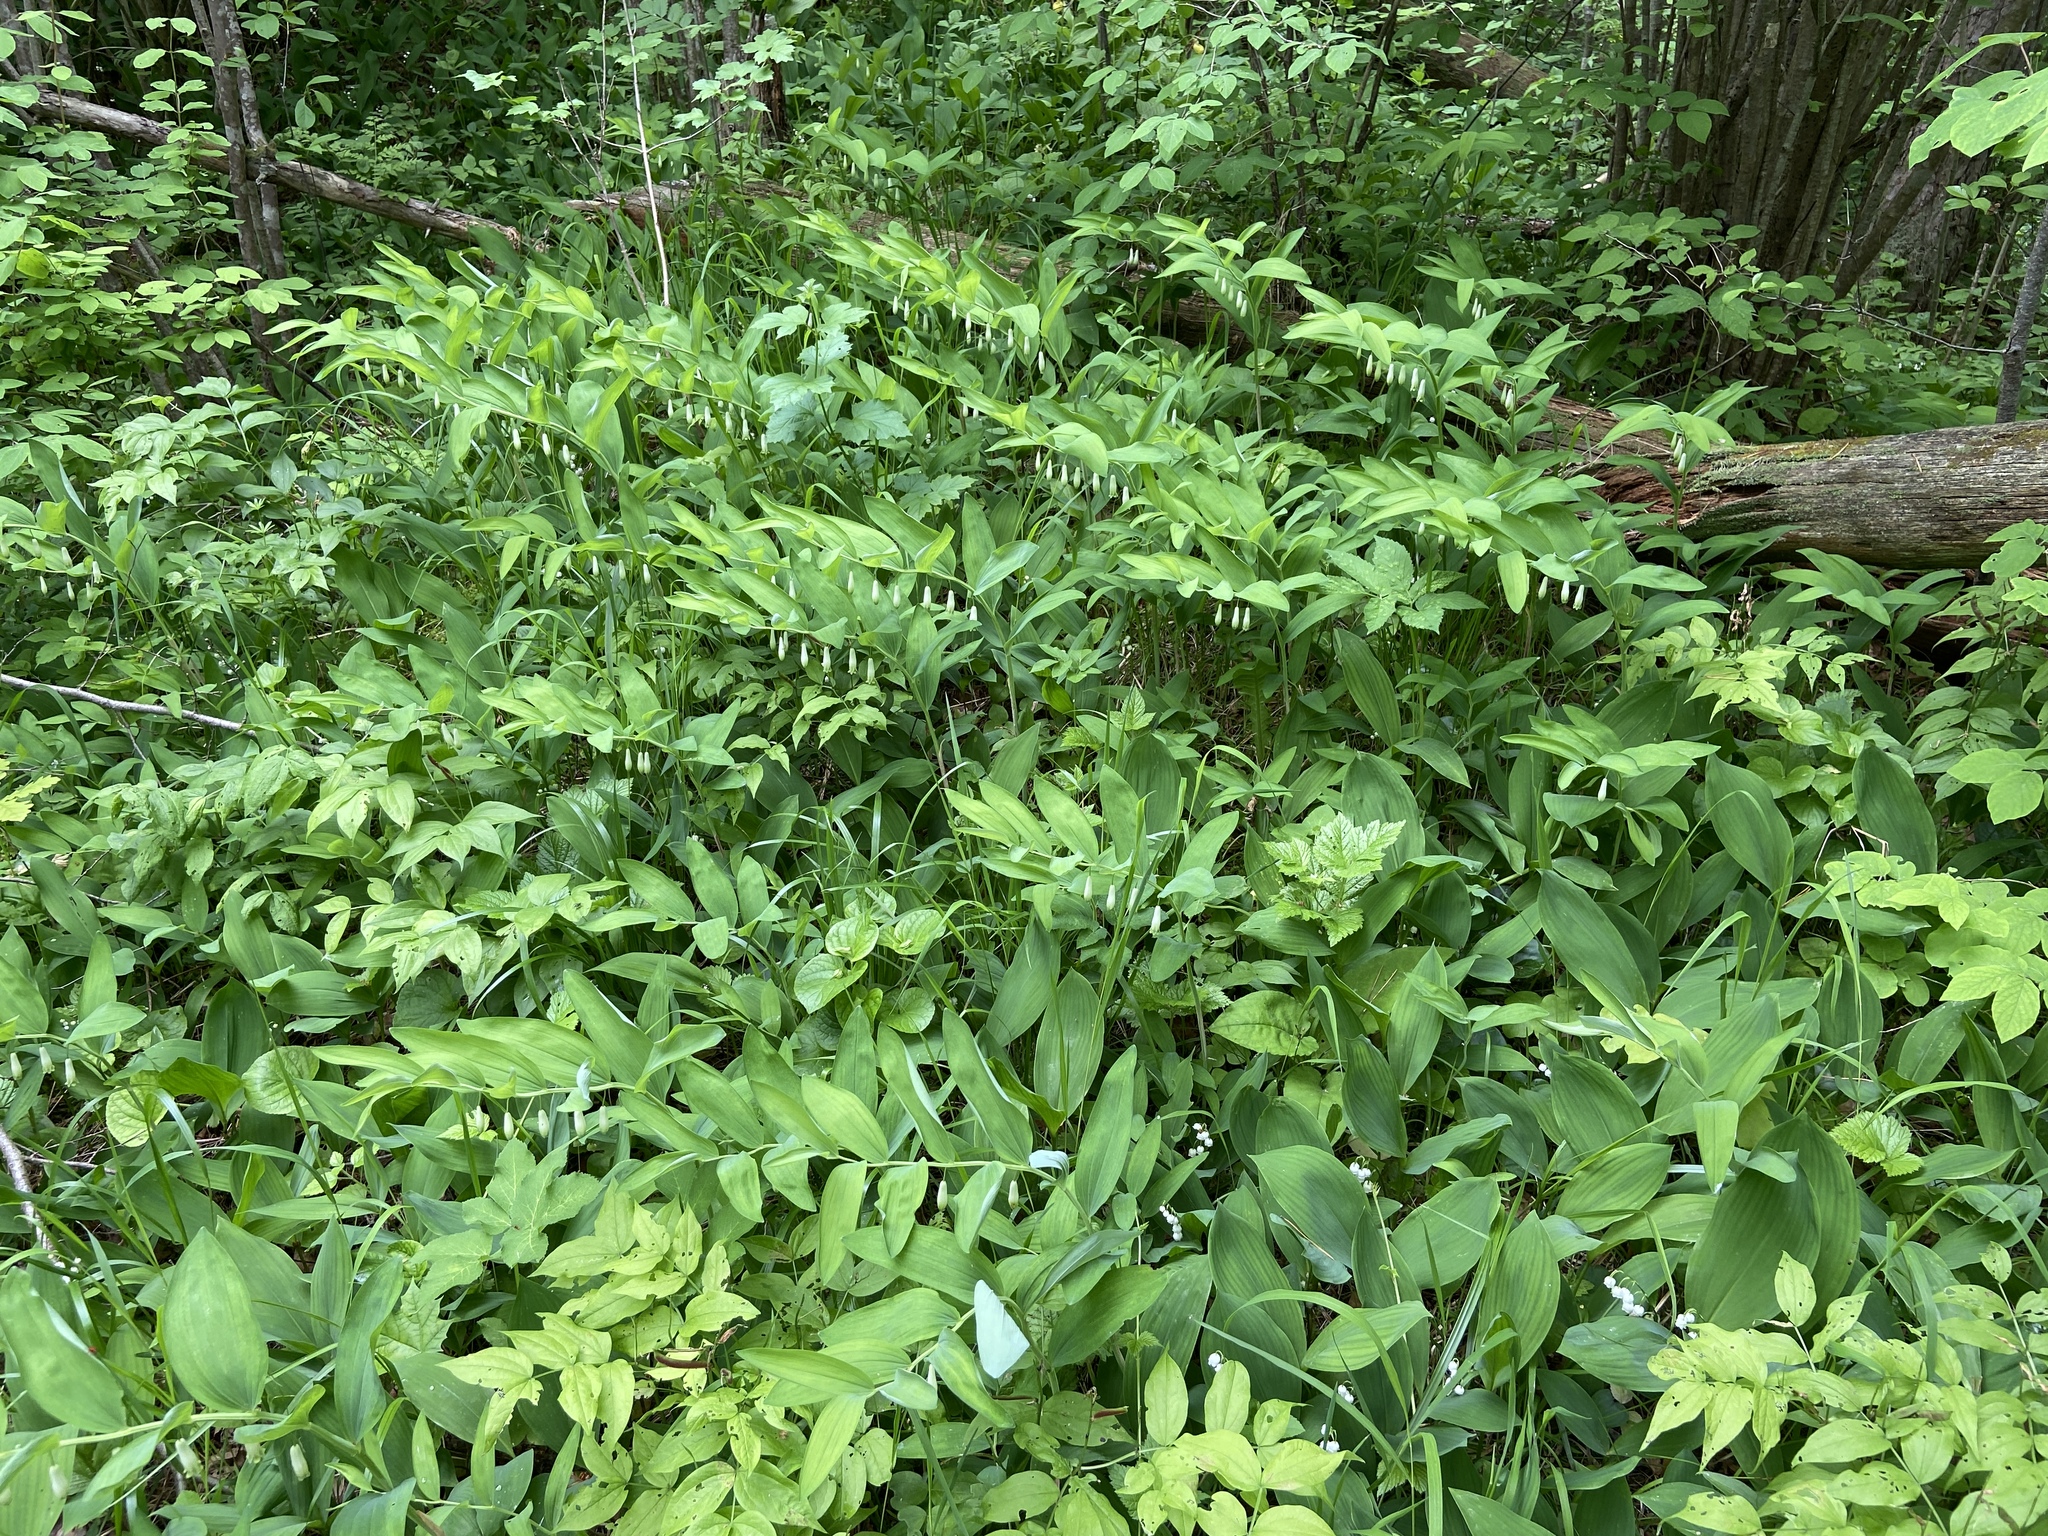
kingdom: Plantae
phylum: Tracheophyta
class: Liliopsida
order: Asparagales
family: Asparagaceae
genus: Polygonatum
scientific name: Polygonatum odoratum
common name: Angular solomon's-seal
